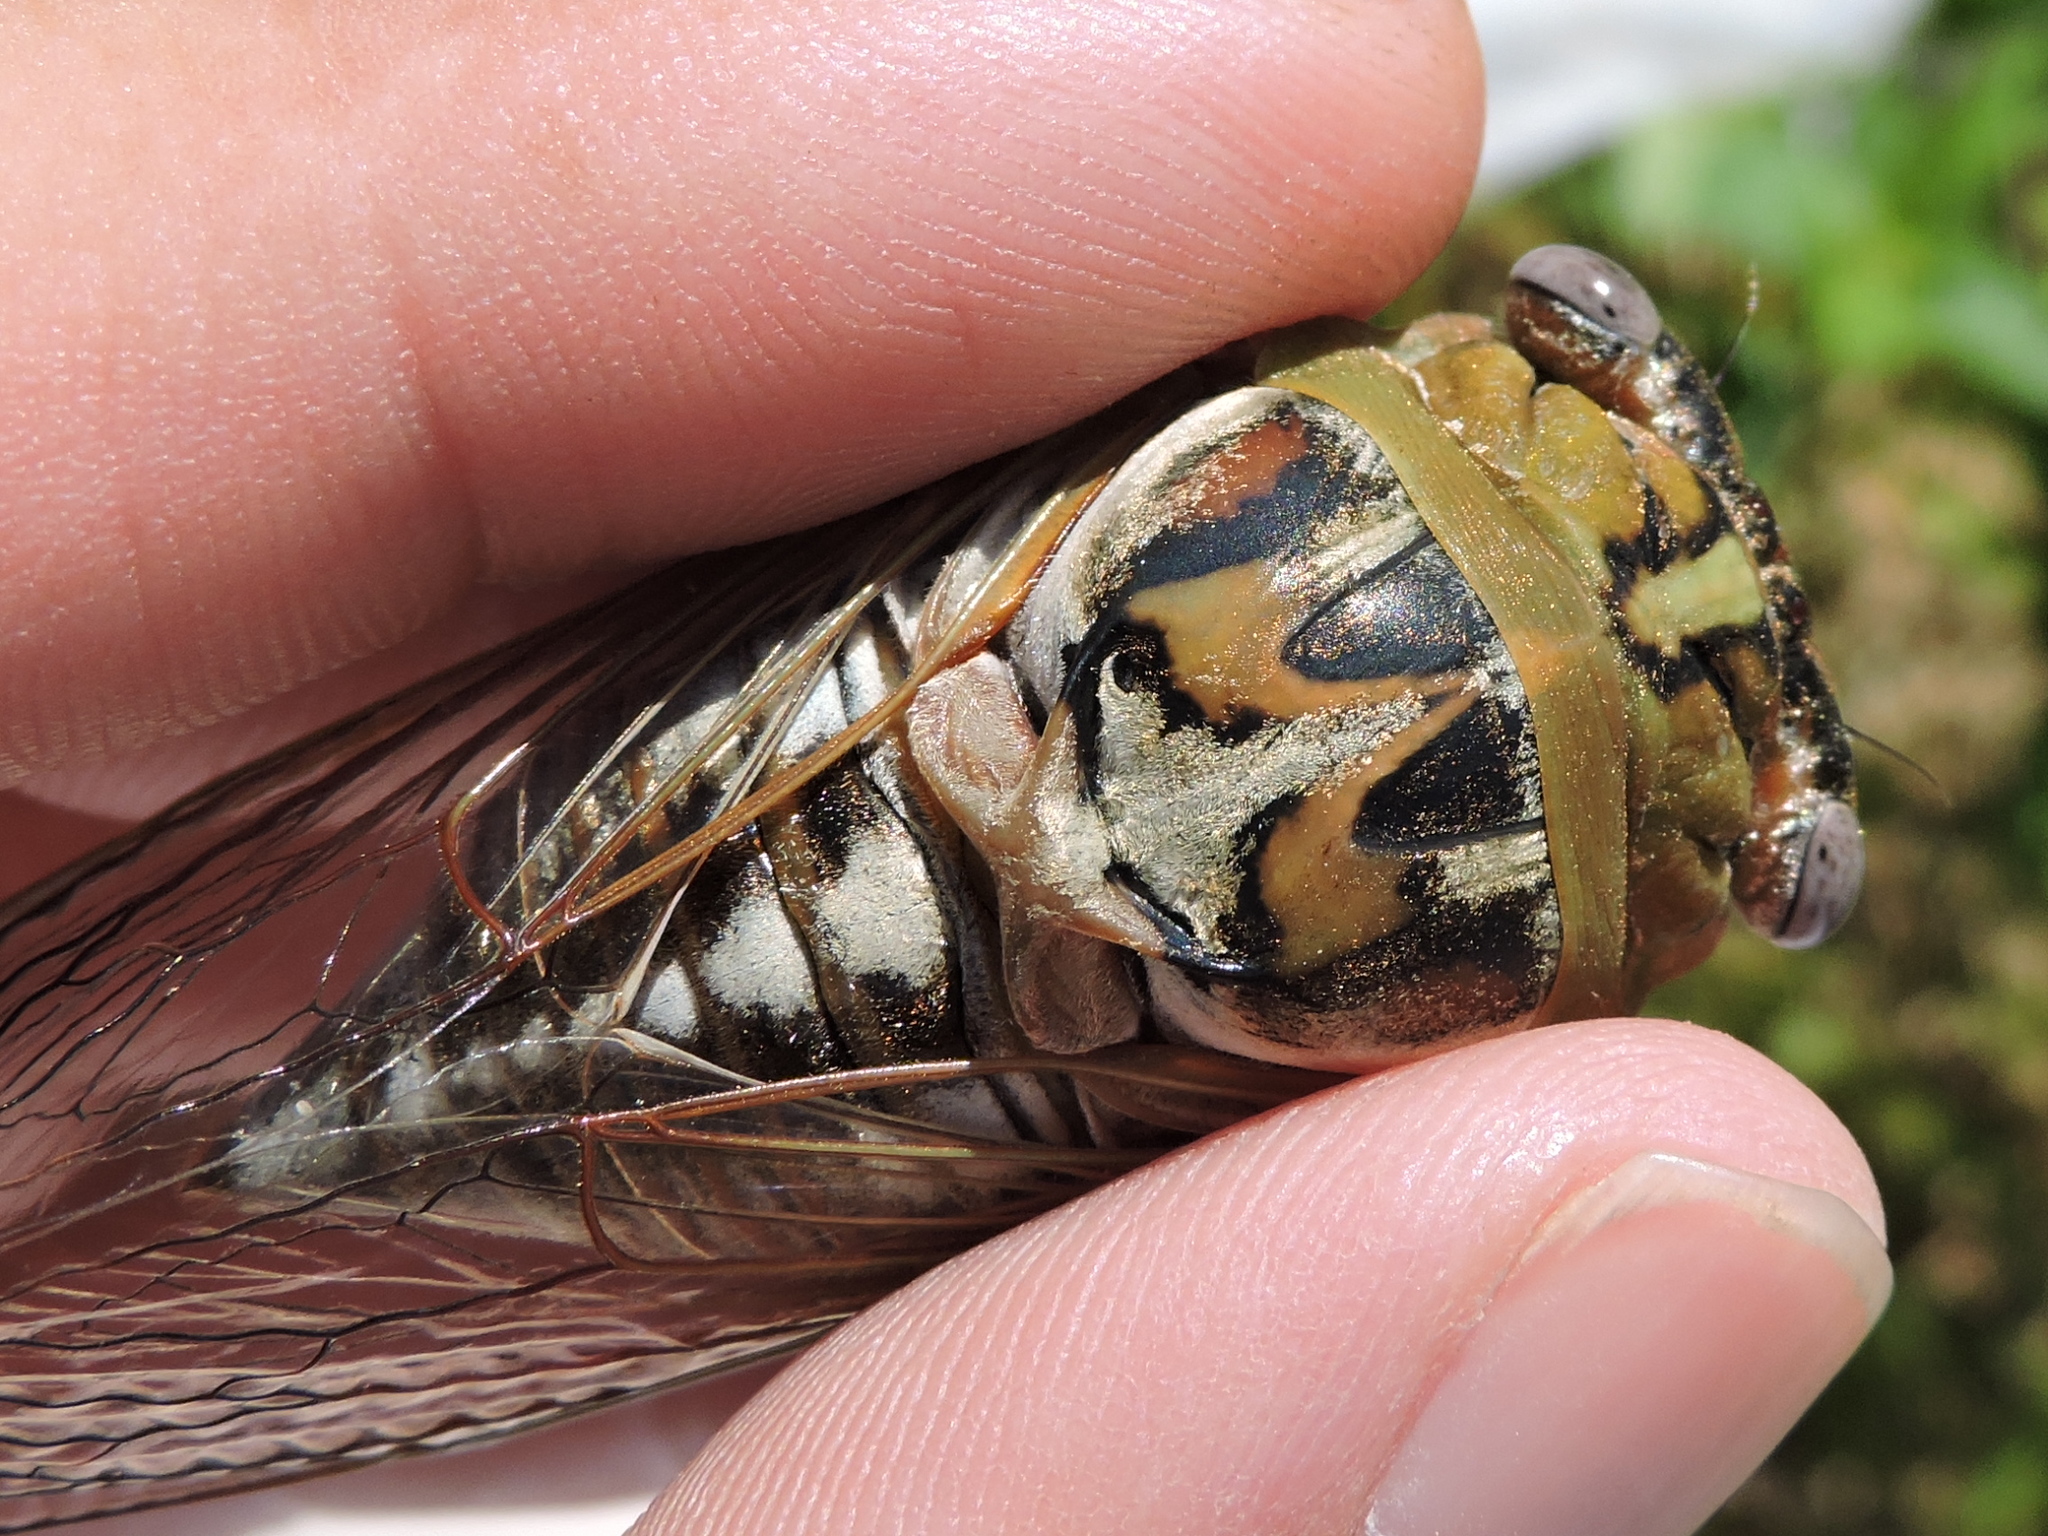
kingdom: Animalia
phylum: Arthropoda
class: Insecta
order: Hemiptera
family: Cicadidae
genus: Megatibicen
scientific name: Megatibicen dealbatus
